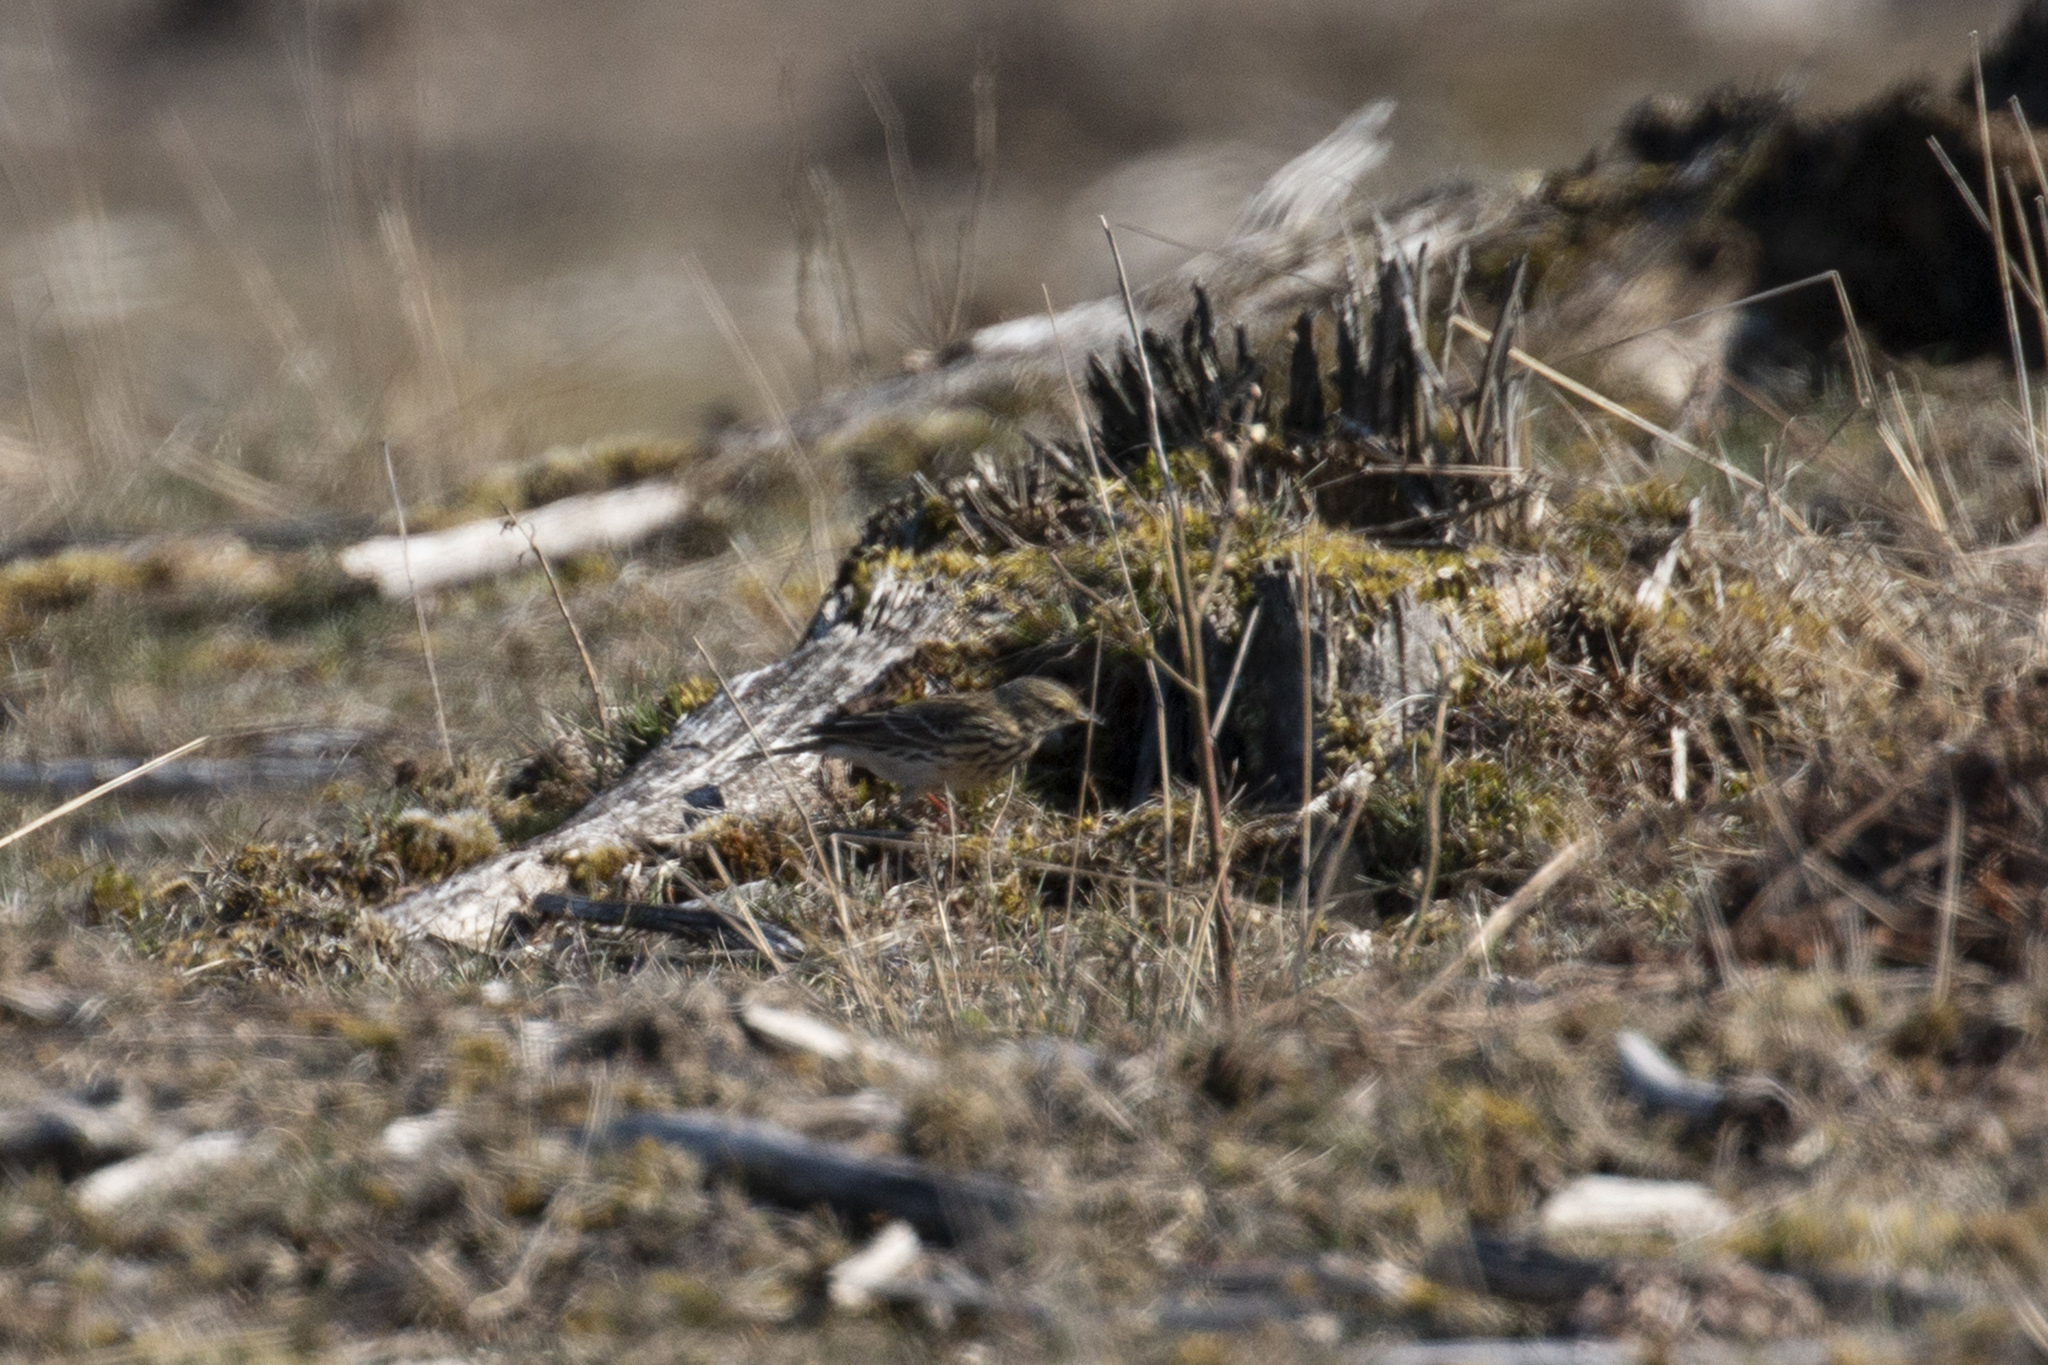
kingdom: Animalia
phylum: Chordata
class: Aves
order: Passeriformes
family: Motacillidae
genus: Anthus
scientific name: Anthus pratensis
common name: Meadow pipit
